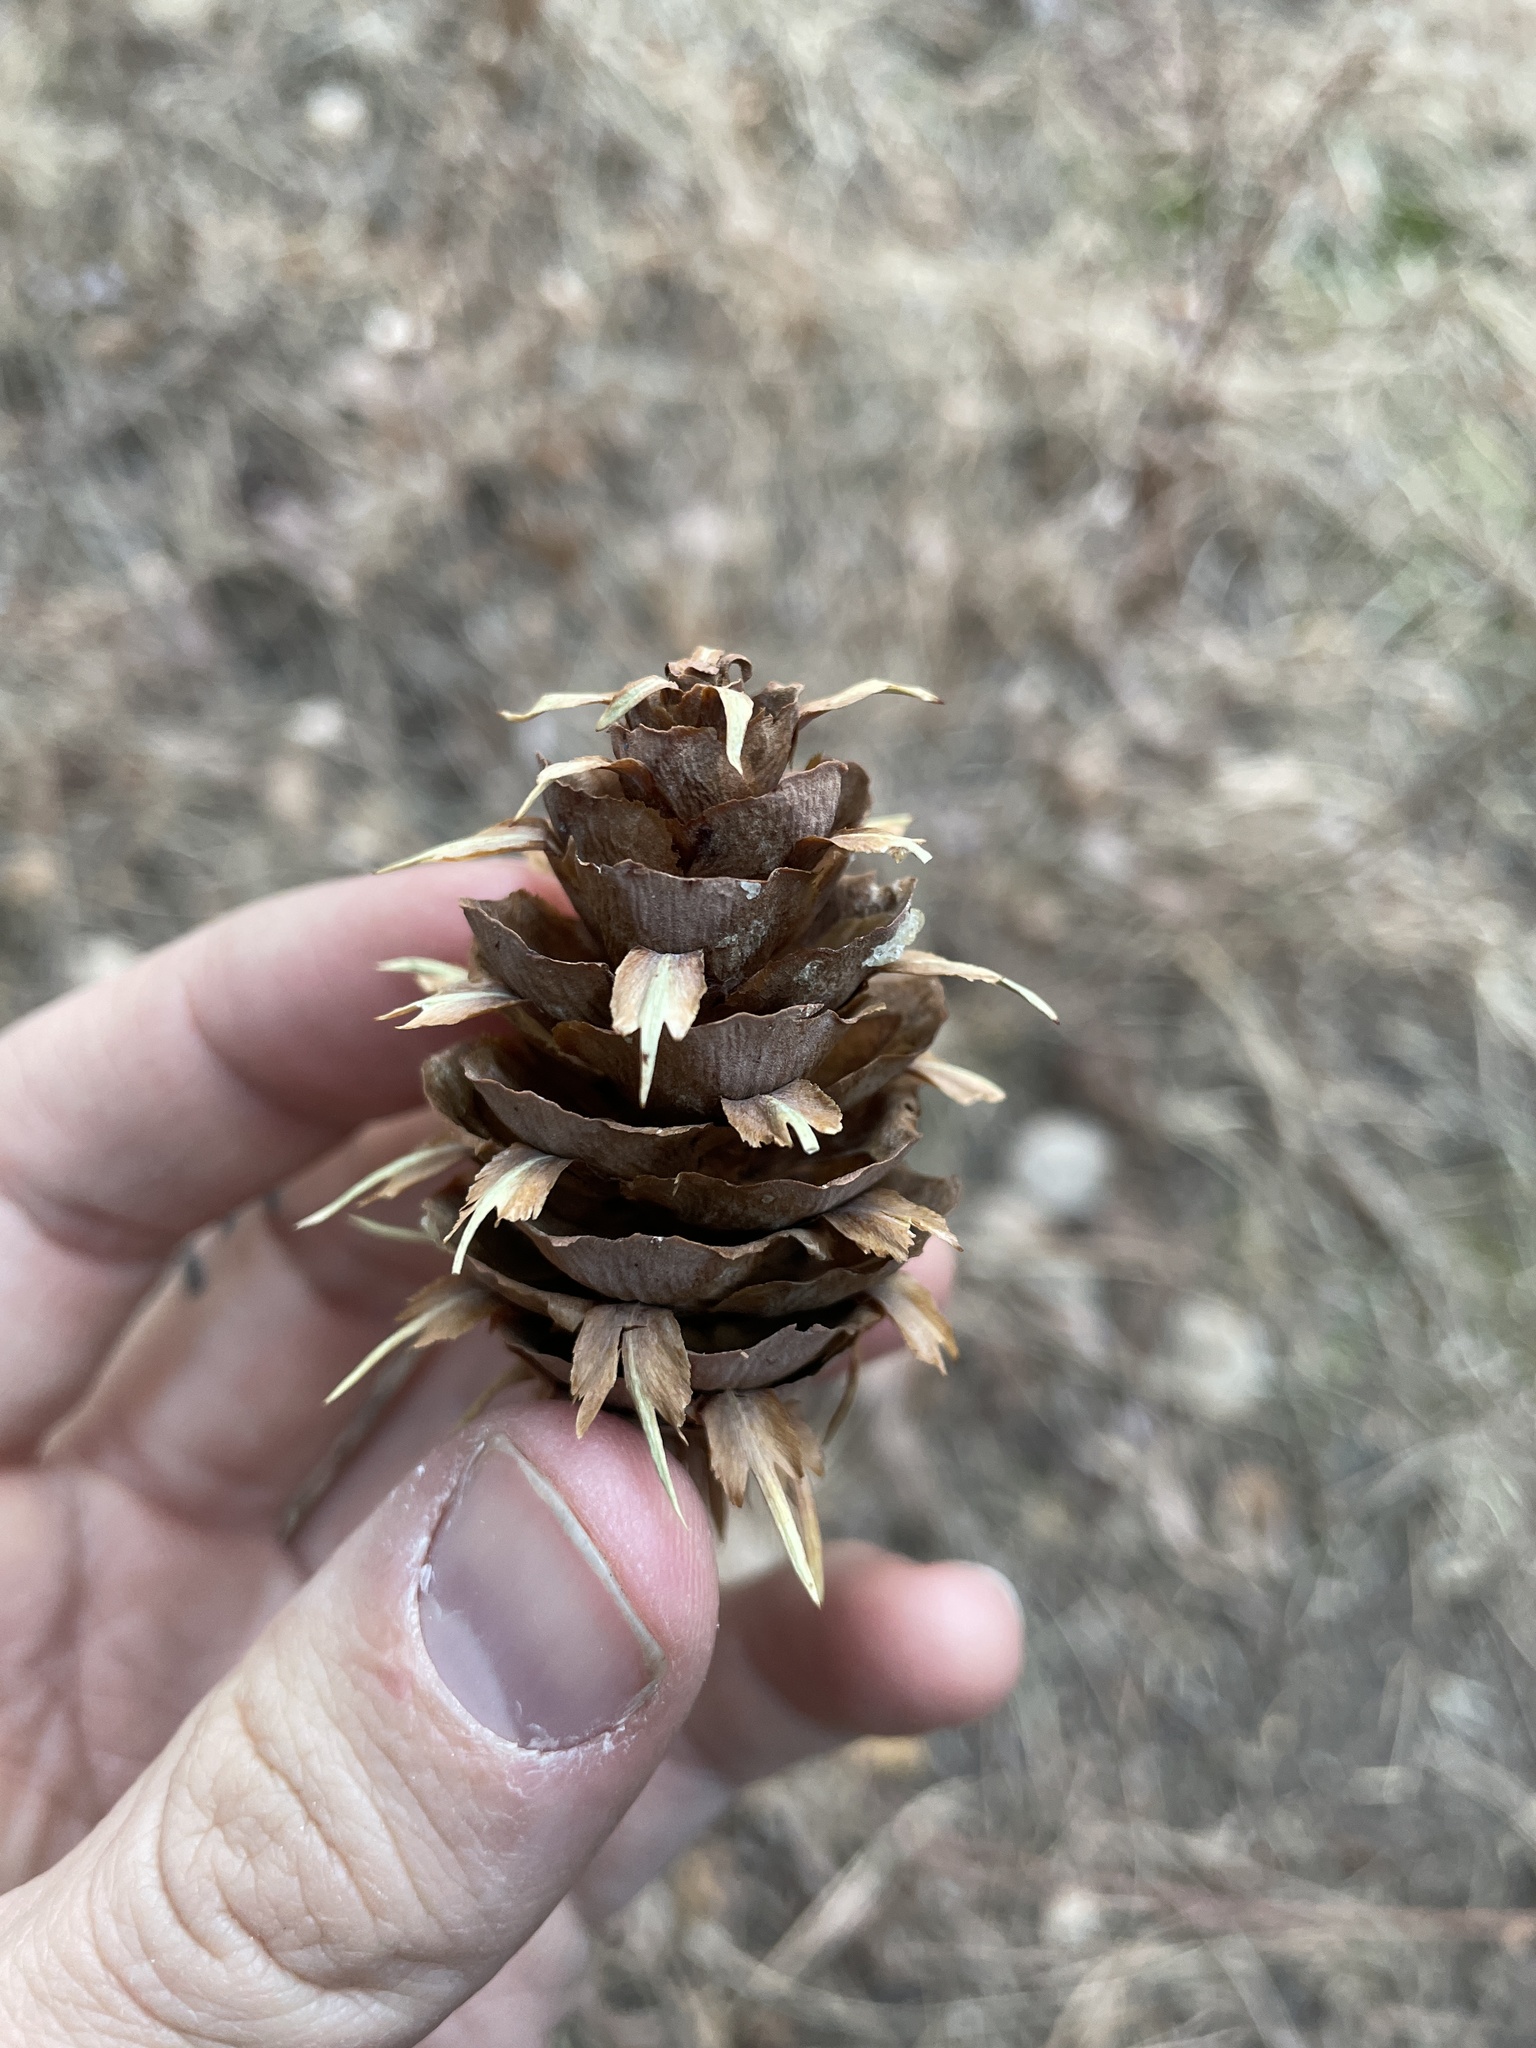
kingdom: Plantae
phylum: Tracheophyta
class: Pinopsida
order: Pinales
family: Pinaceae
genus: Pseudotsuga
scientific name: Pseudotsuga menziesii
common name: Douglas fir
